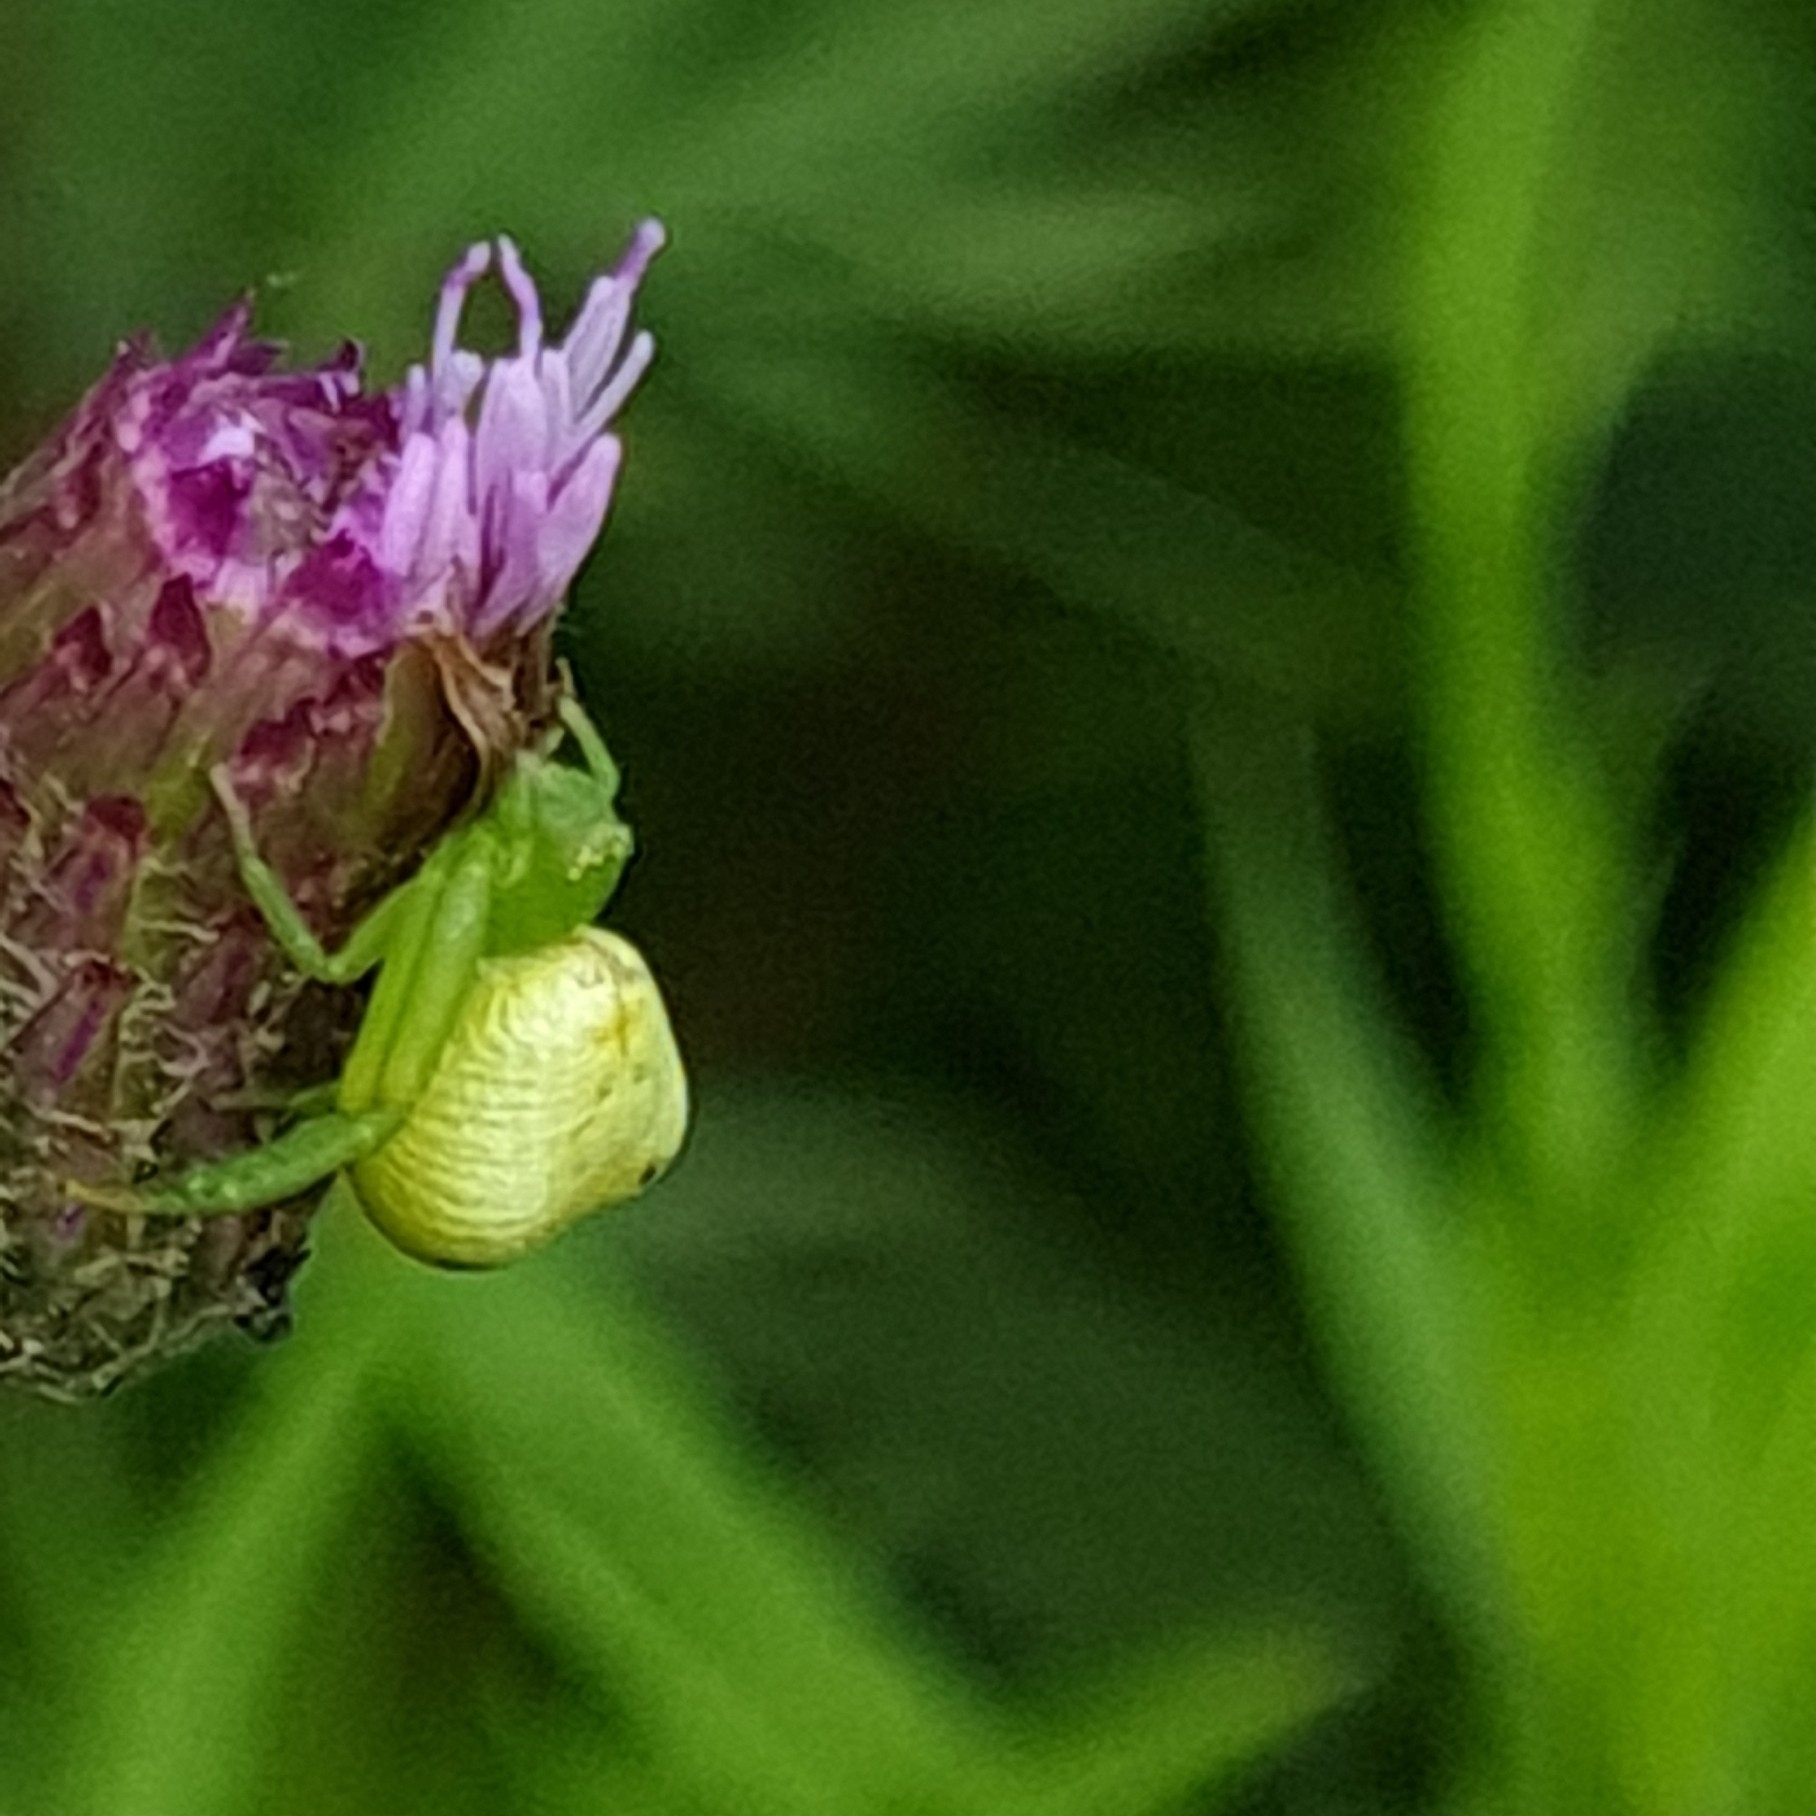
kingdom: Animalia
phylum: Arthropoda
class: Arachnida
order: Araneae
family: Thomisidae
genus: Ebrechtella
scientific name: Ebrechtella tricuspidata
